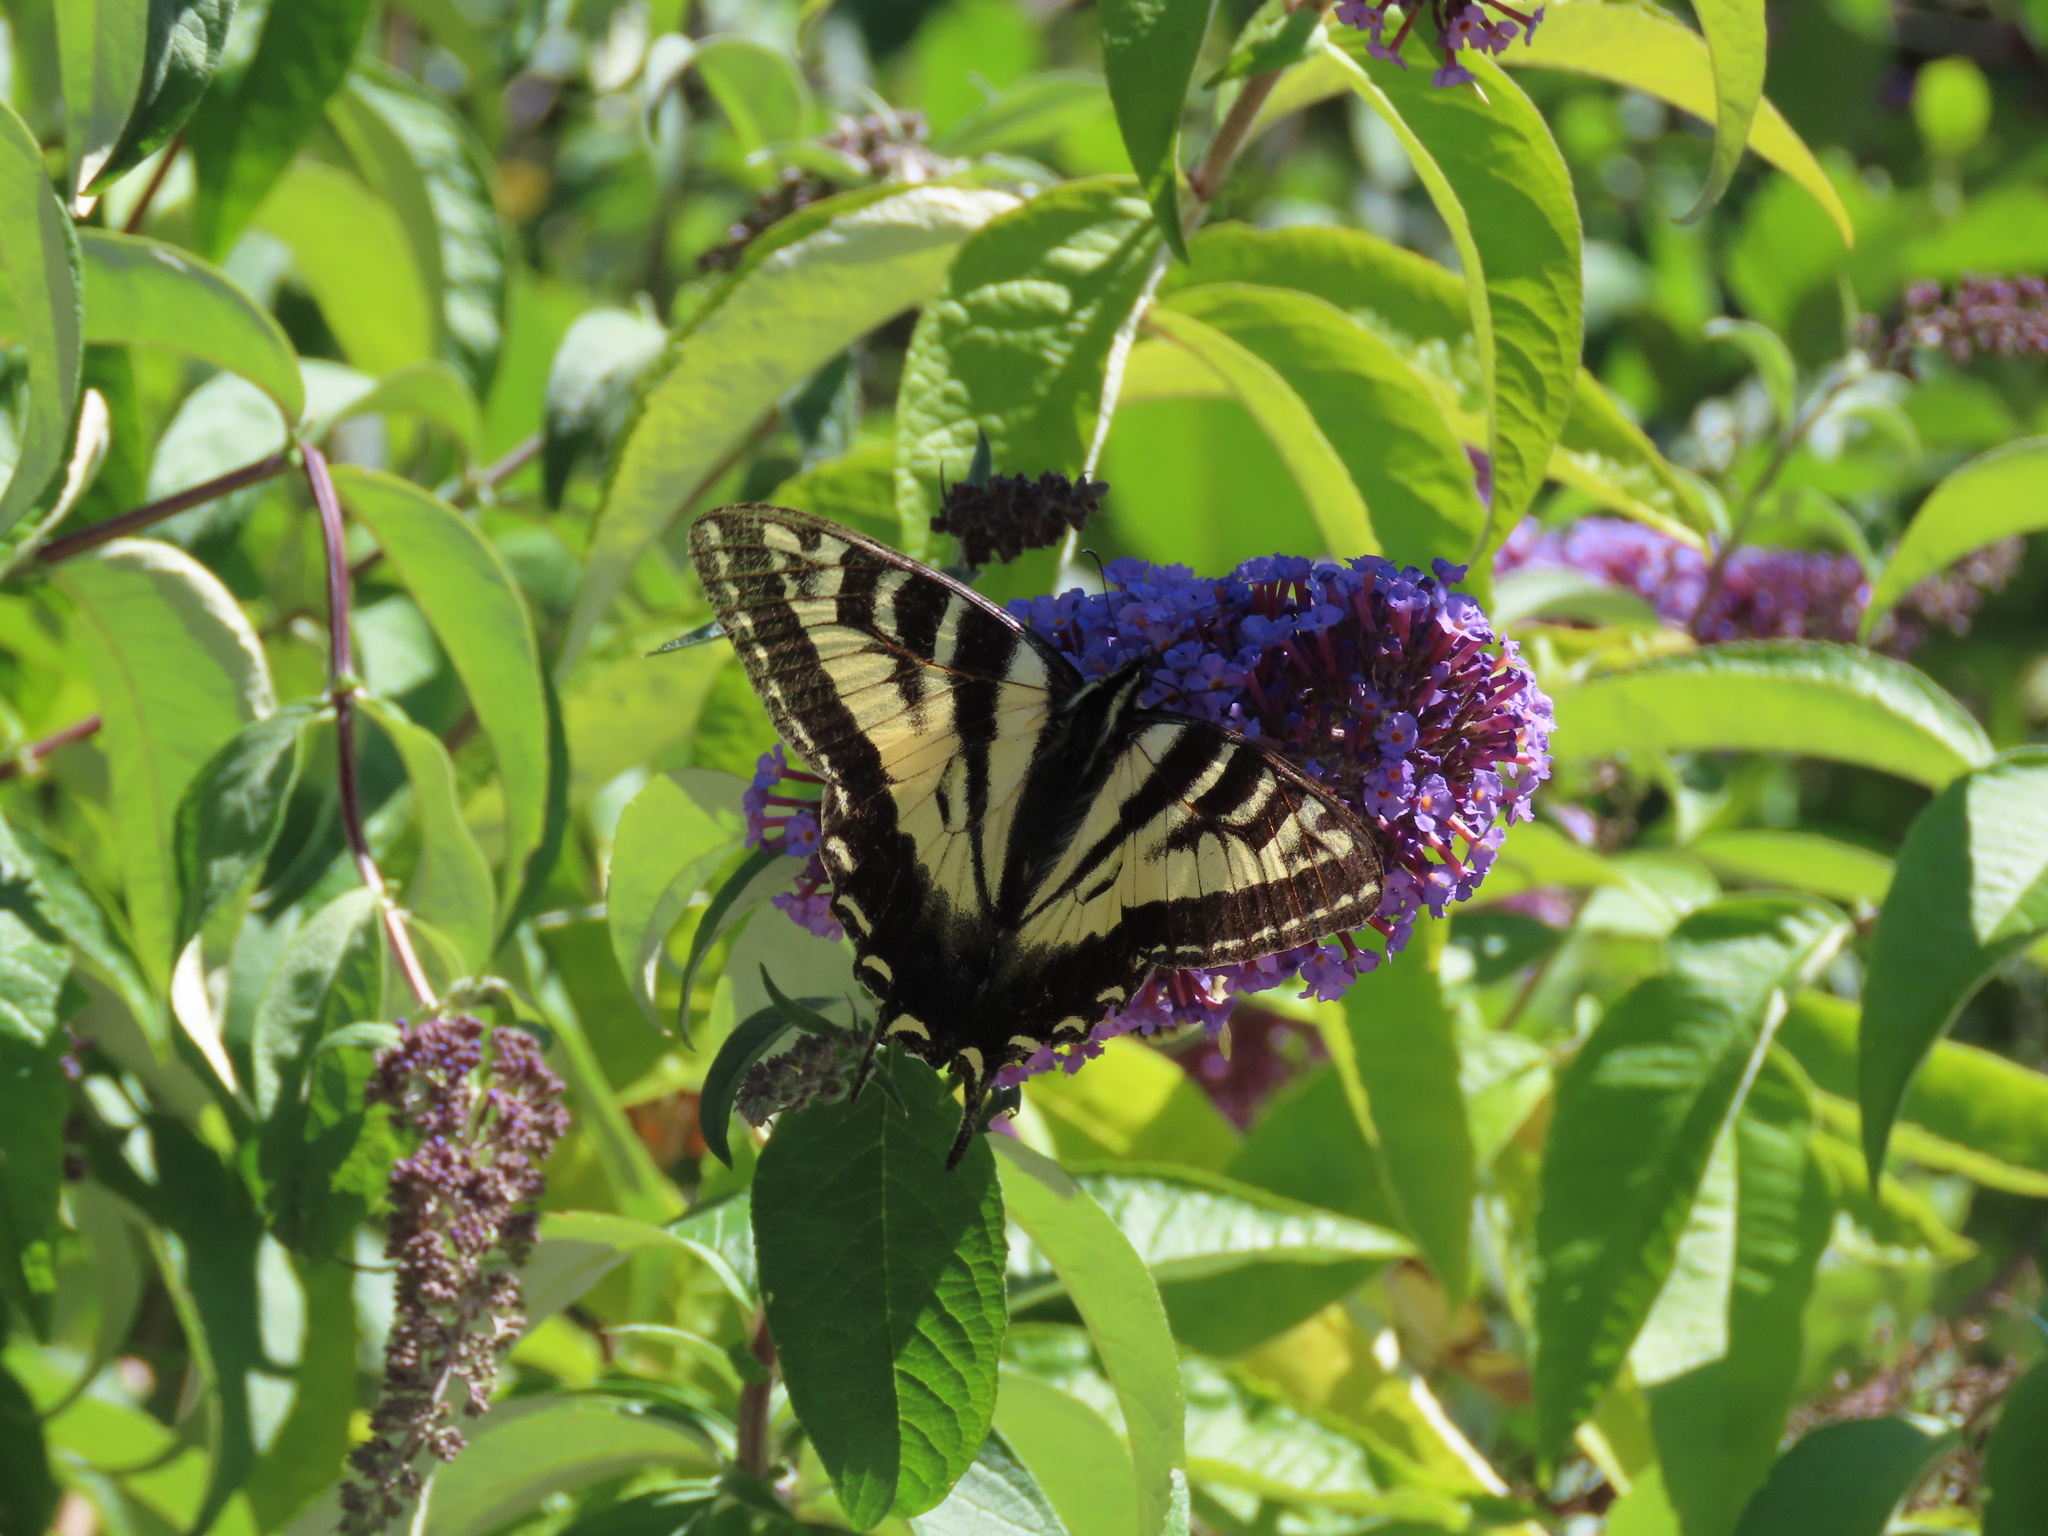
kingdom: Animalia
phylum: Arthropoda
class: Insecta
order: Lepidoptera
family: Papilionidae
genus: Papilio
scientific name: Papilio rutulus
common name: Western tiger swallowtail
